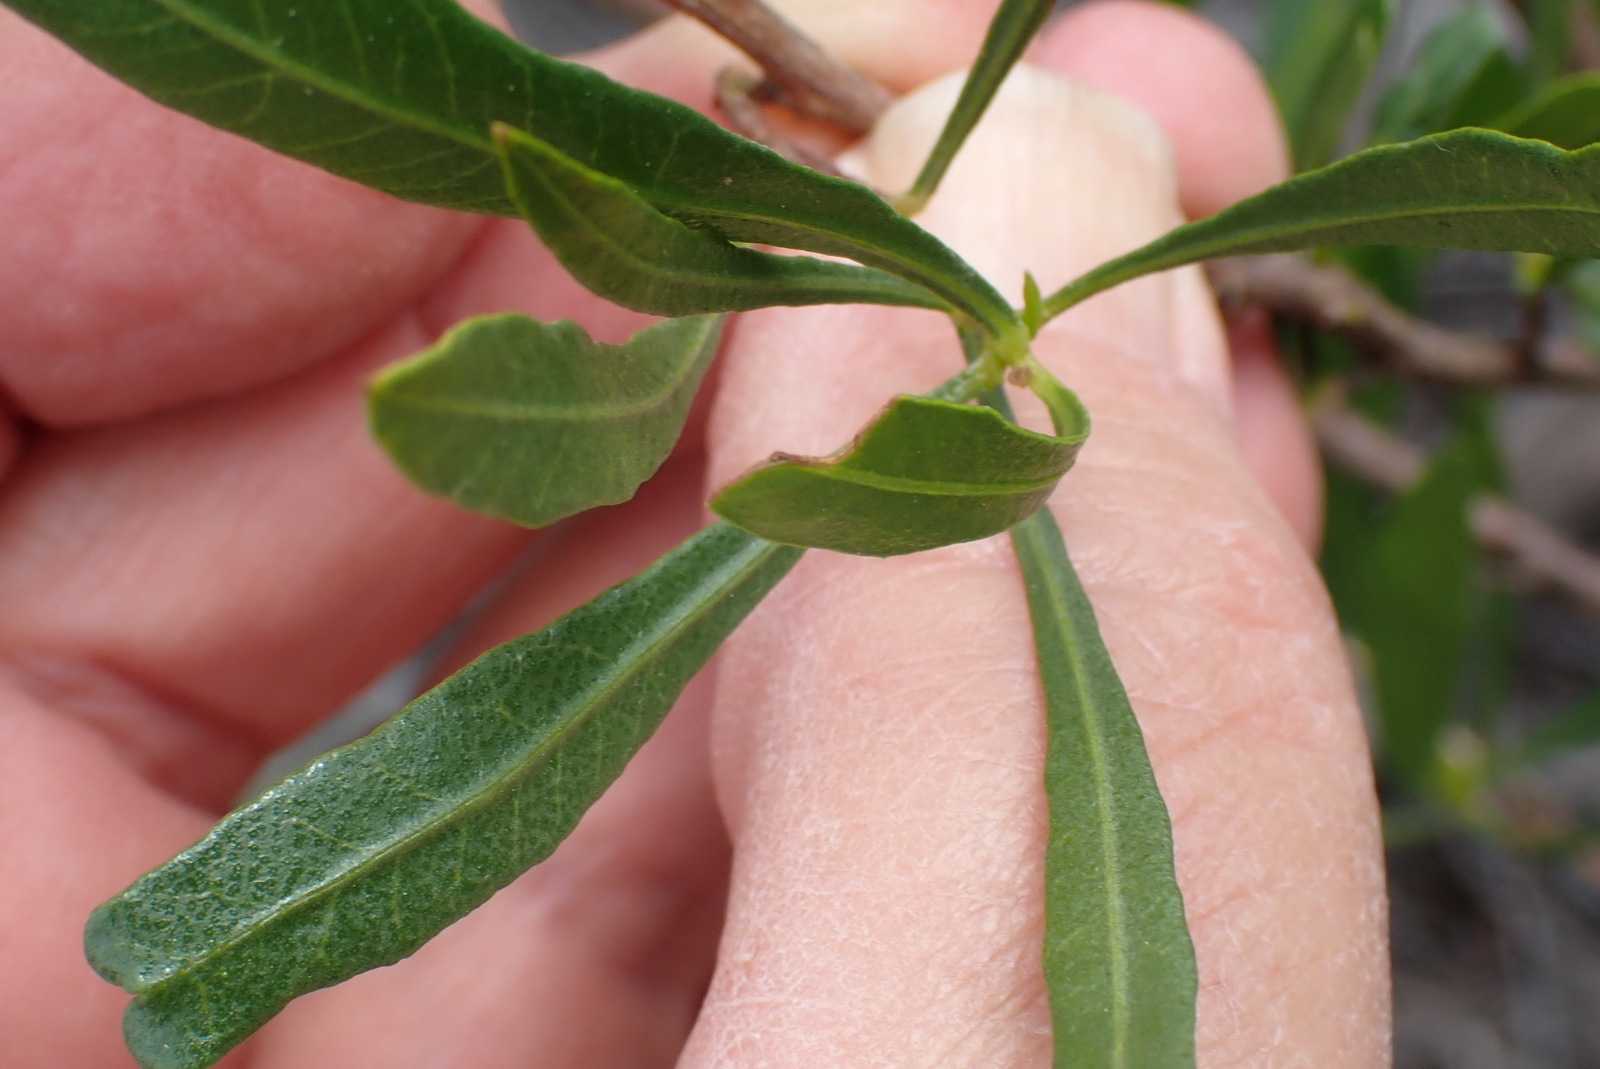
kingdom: Plantae
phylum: Tracheophyta
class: Magnoliopsida
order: Sapindales
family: Sapindaceae
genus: Dodonaea
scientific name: Dodonaea viscosa
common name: Hopbush
